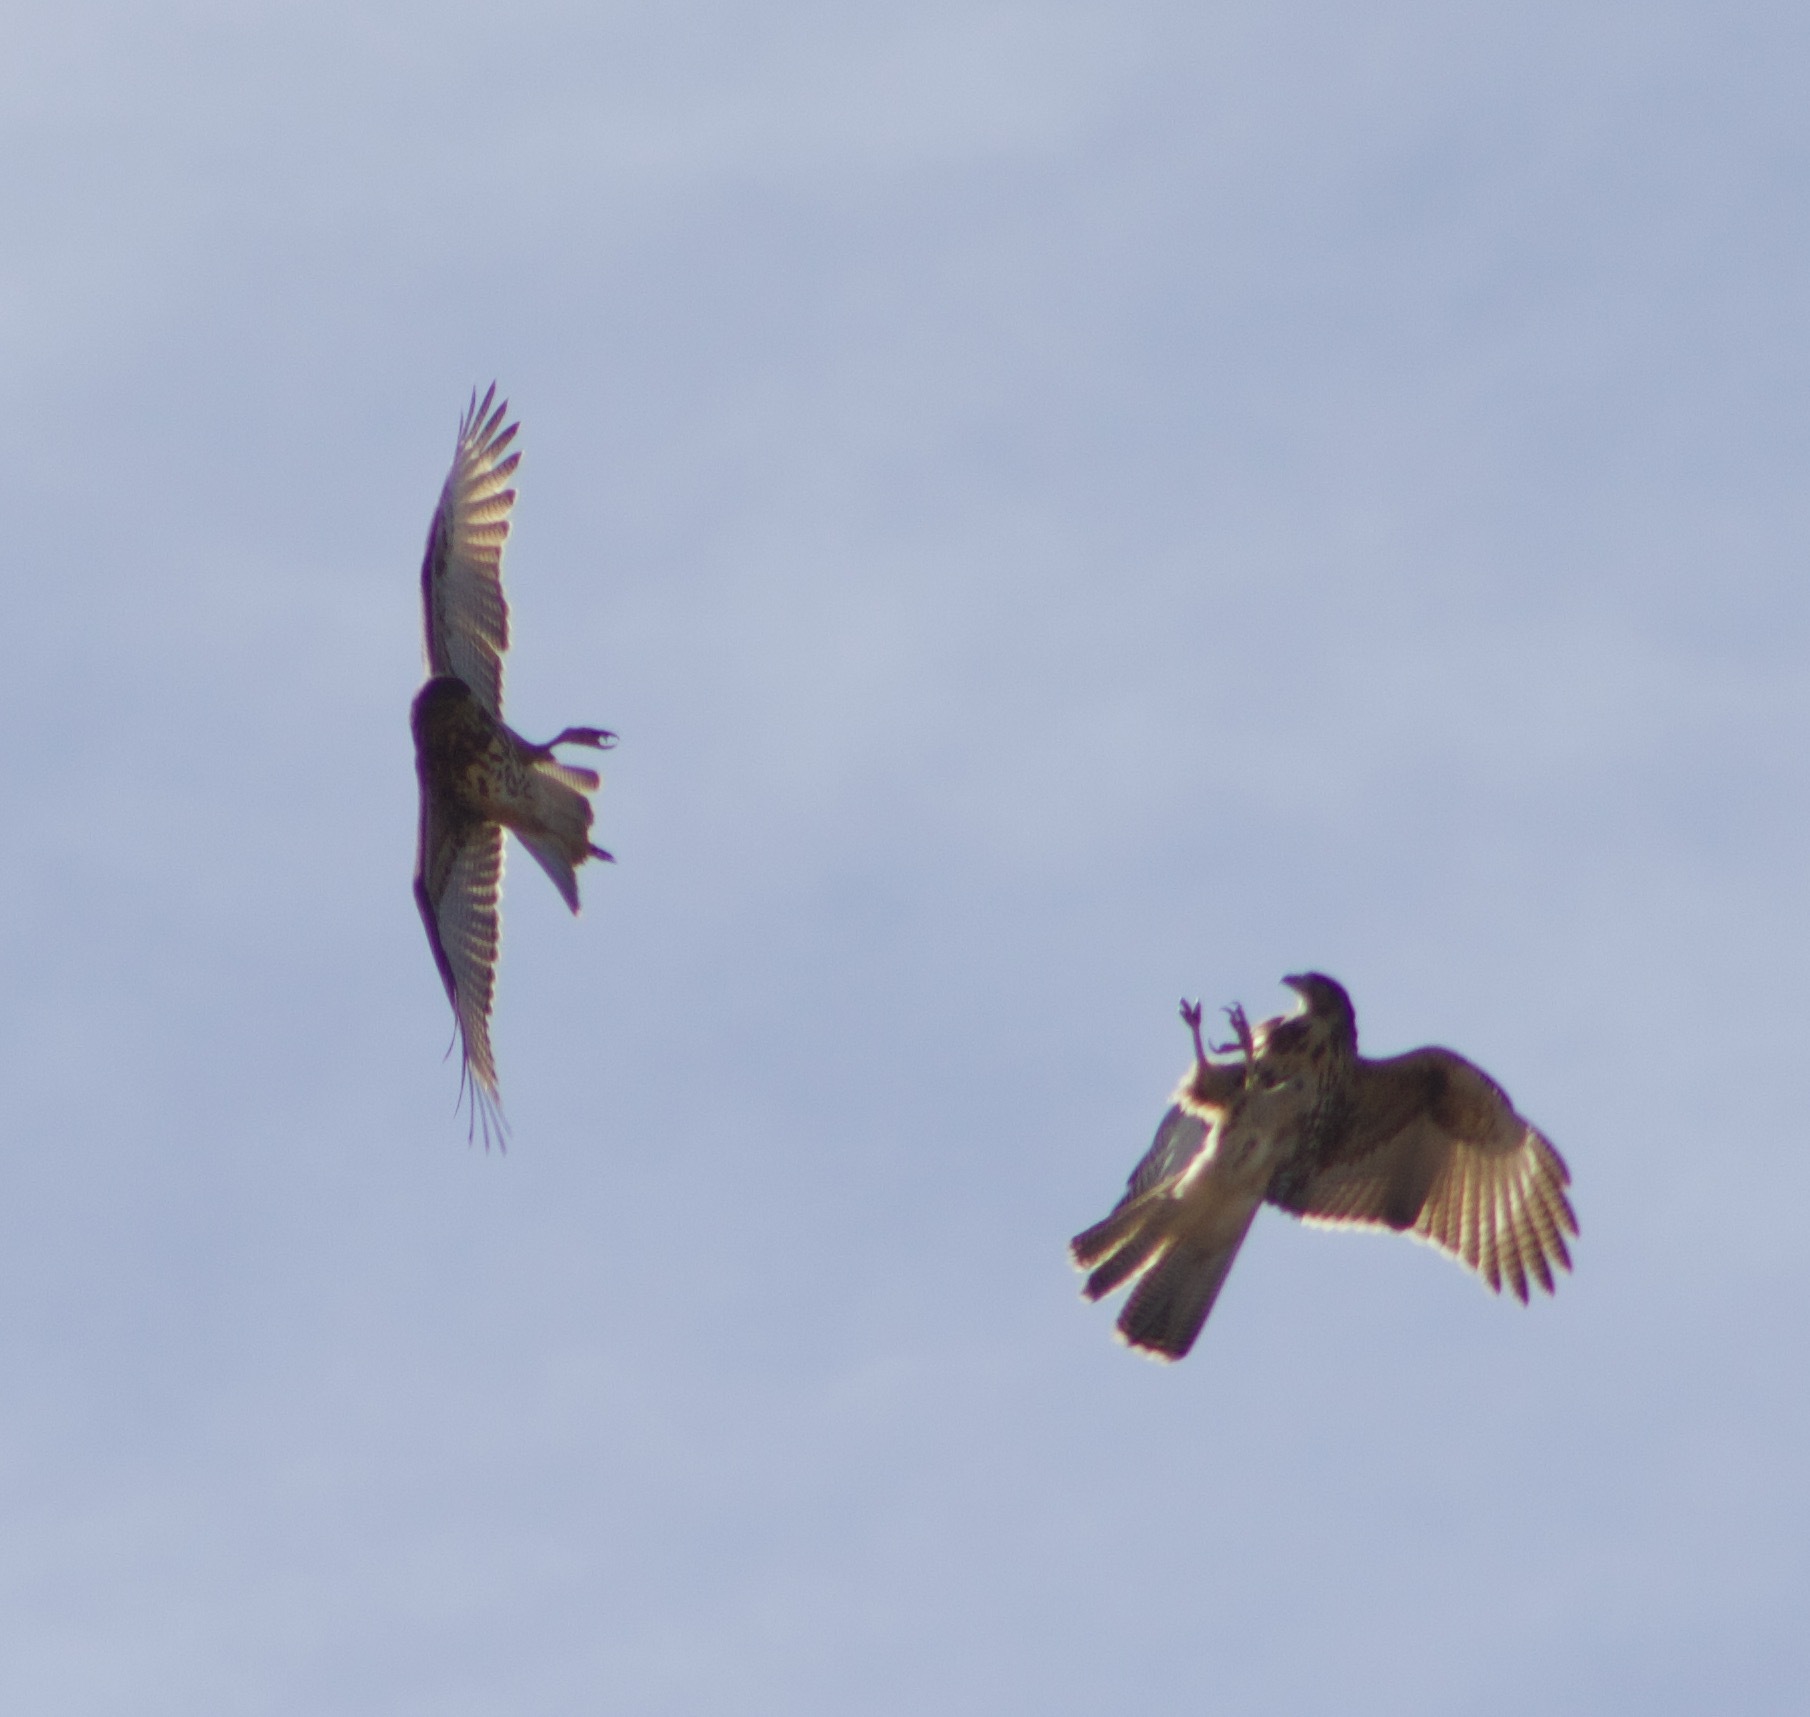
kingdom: Animalia
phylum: Chordata
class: Aves
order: Accipitriformes
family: Accipitridae
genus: Parabuteo
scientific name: Parabuteo unicinctus
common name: Harris's hawk
